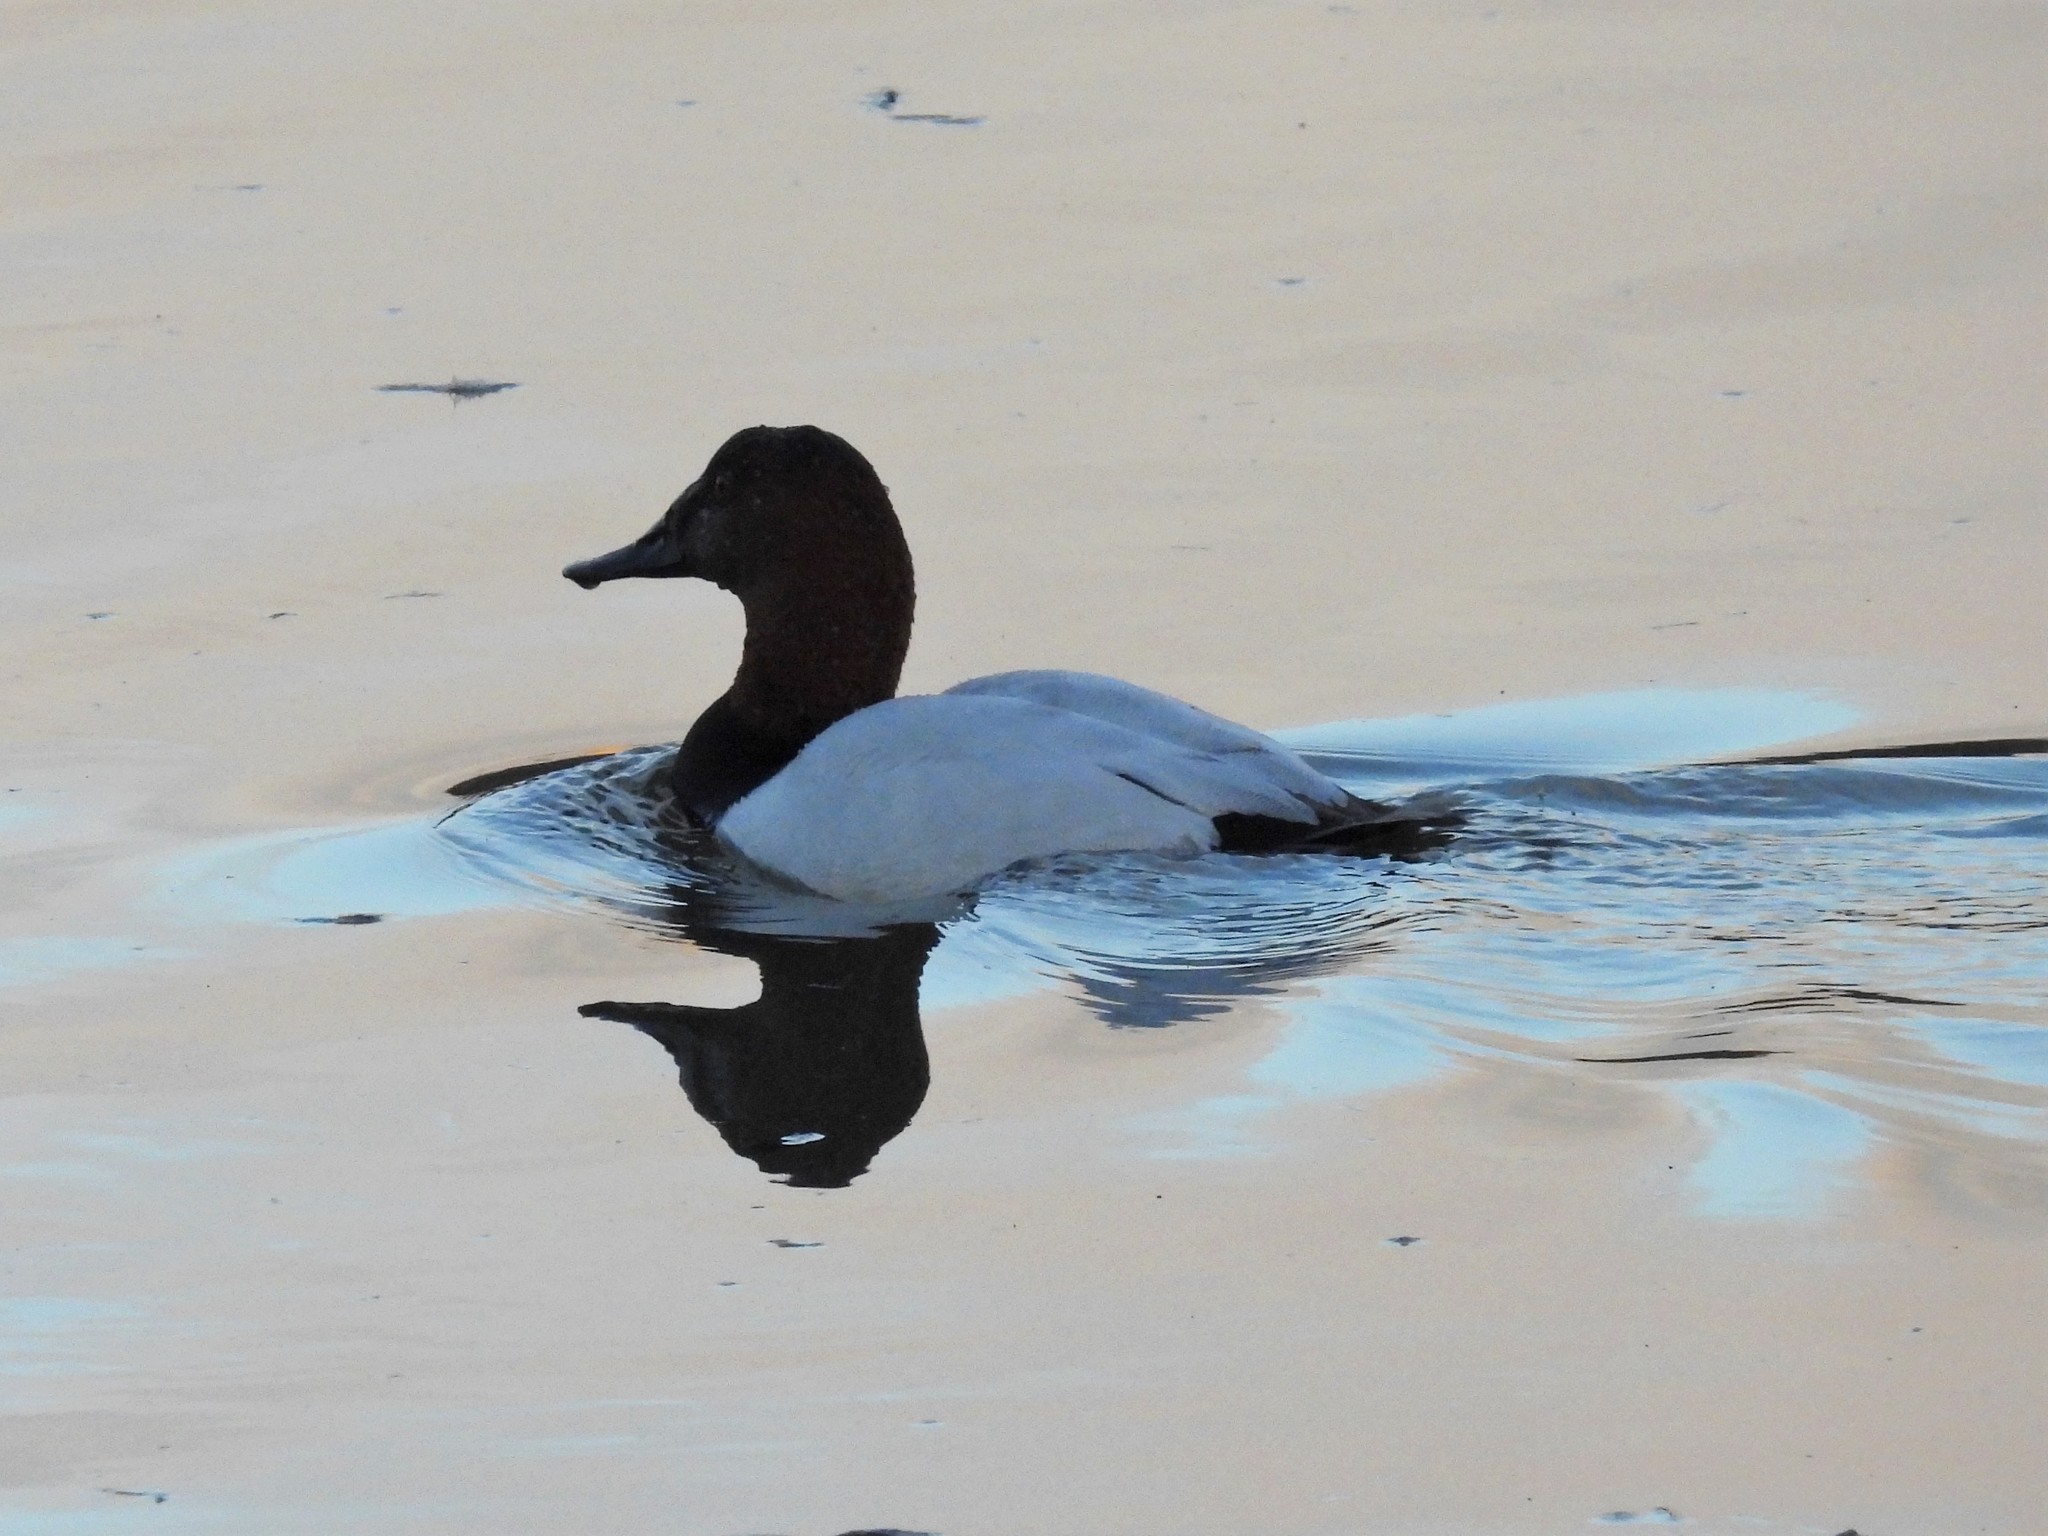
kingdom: Animalia
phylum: Chordata
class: Aves
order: Anseriformes
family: Anatidae
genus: Aythya
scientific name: Aythya valisineria
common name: Canvasback
